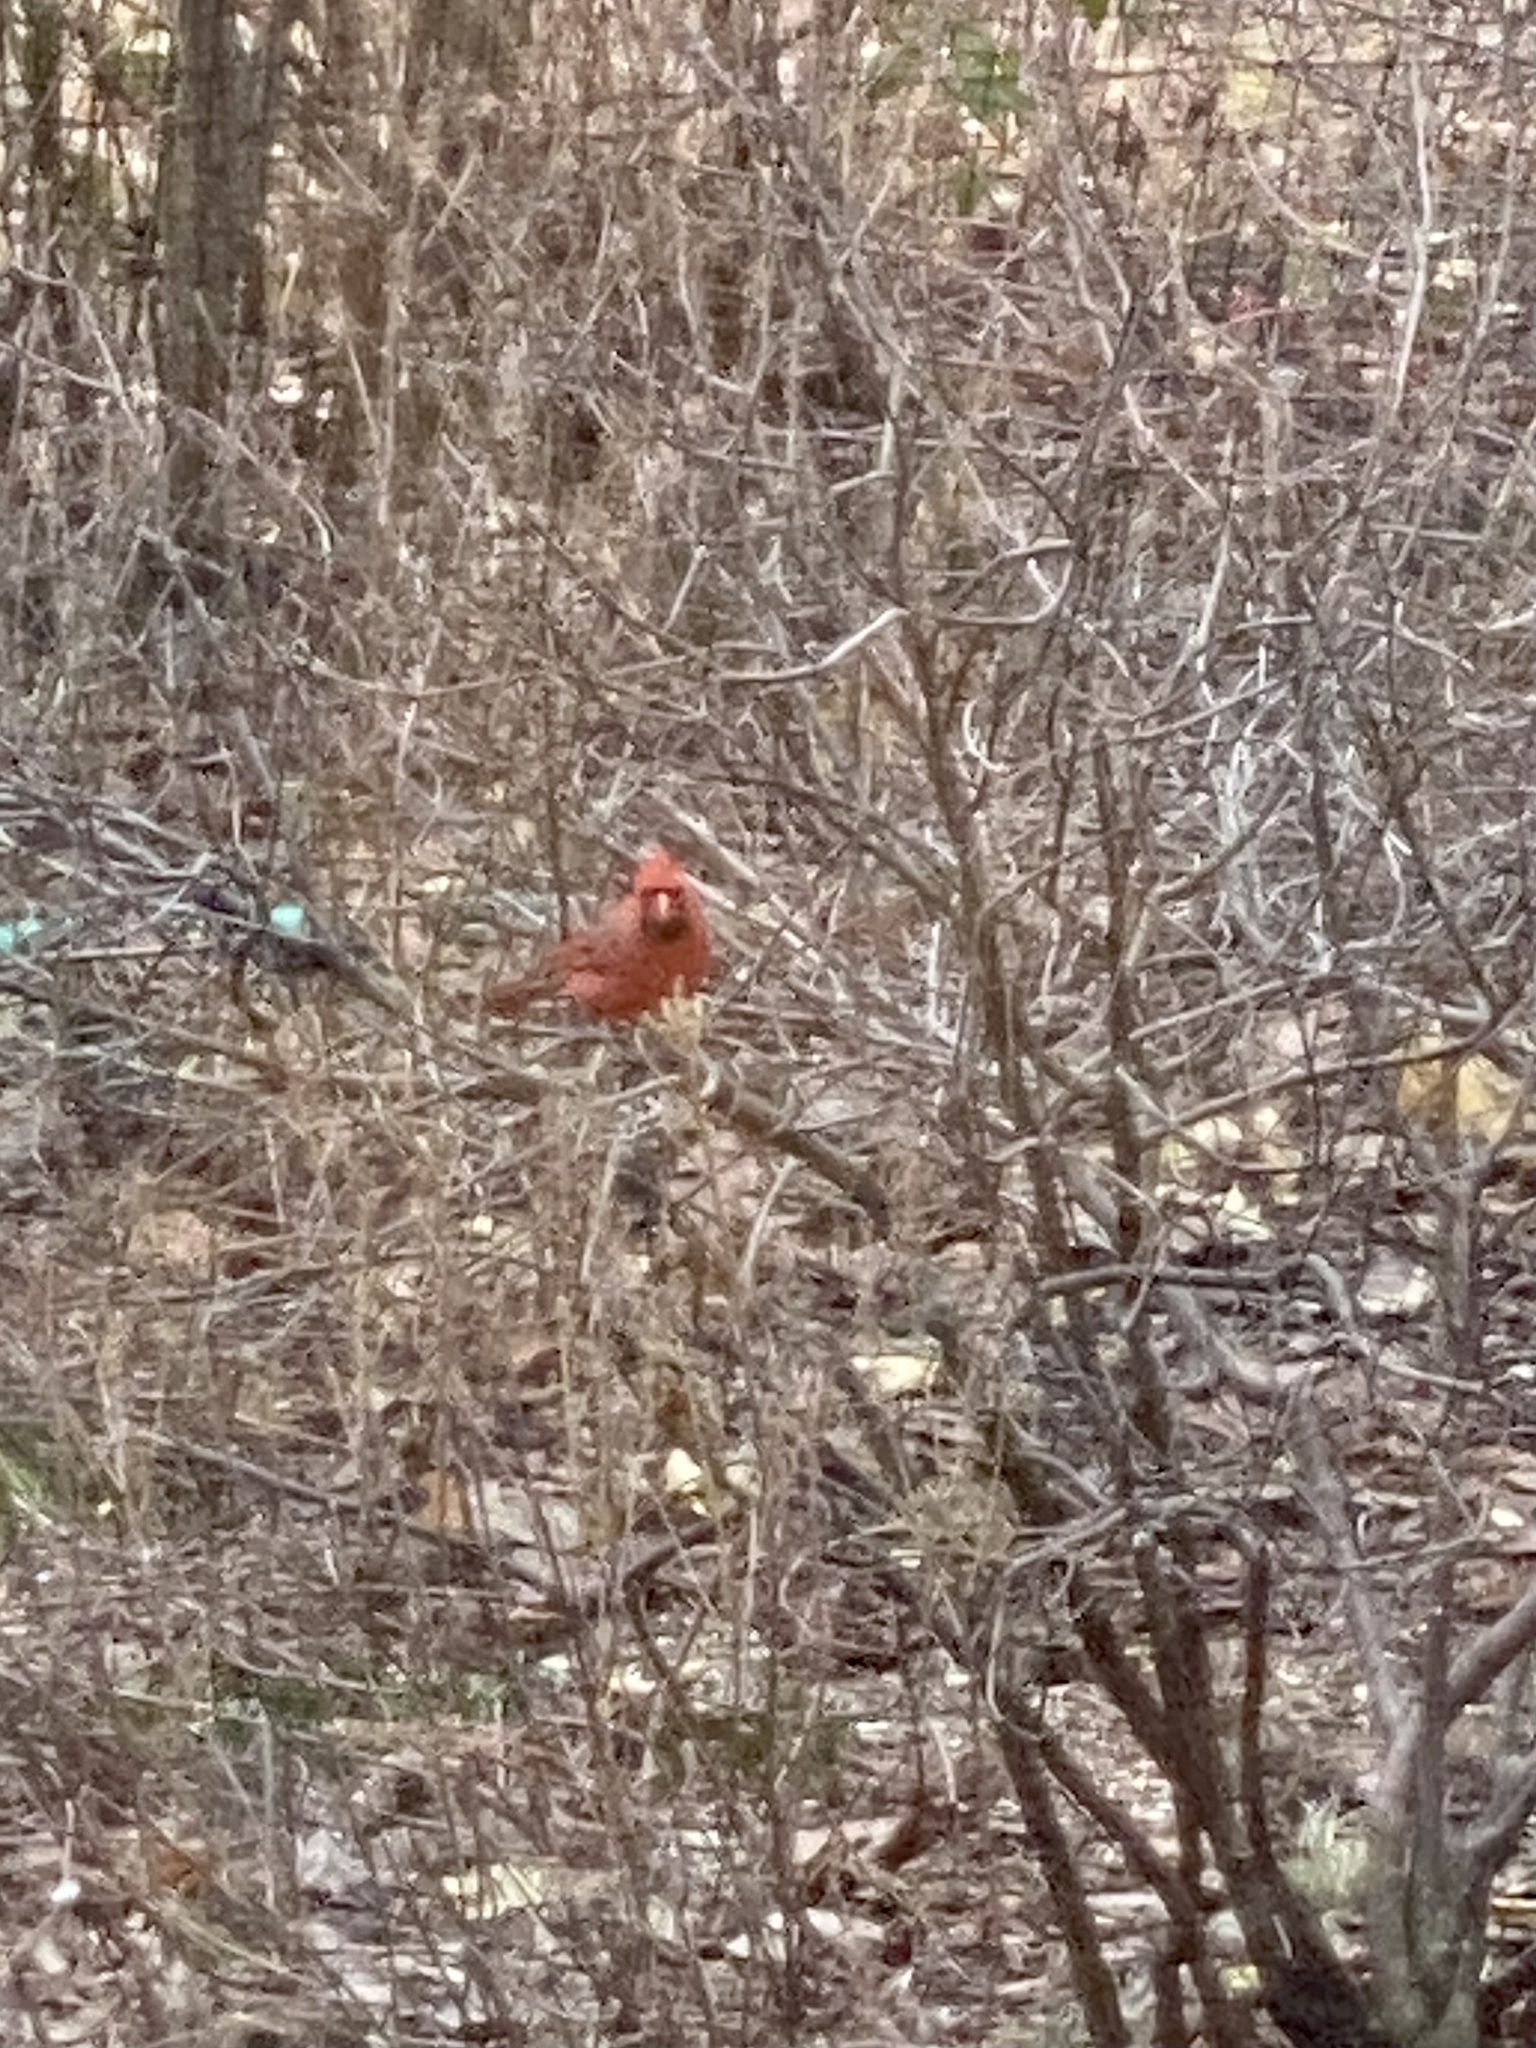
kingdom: Animalia
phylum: Chordata
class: Aves
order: Passeriformes
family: Cardinalidae
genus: Cardinalis
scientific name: Cardinalis cardinalis
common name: Northern cardinal
